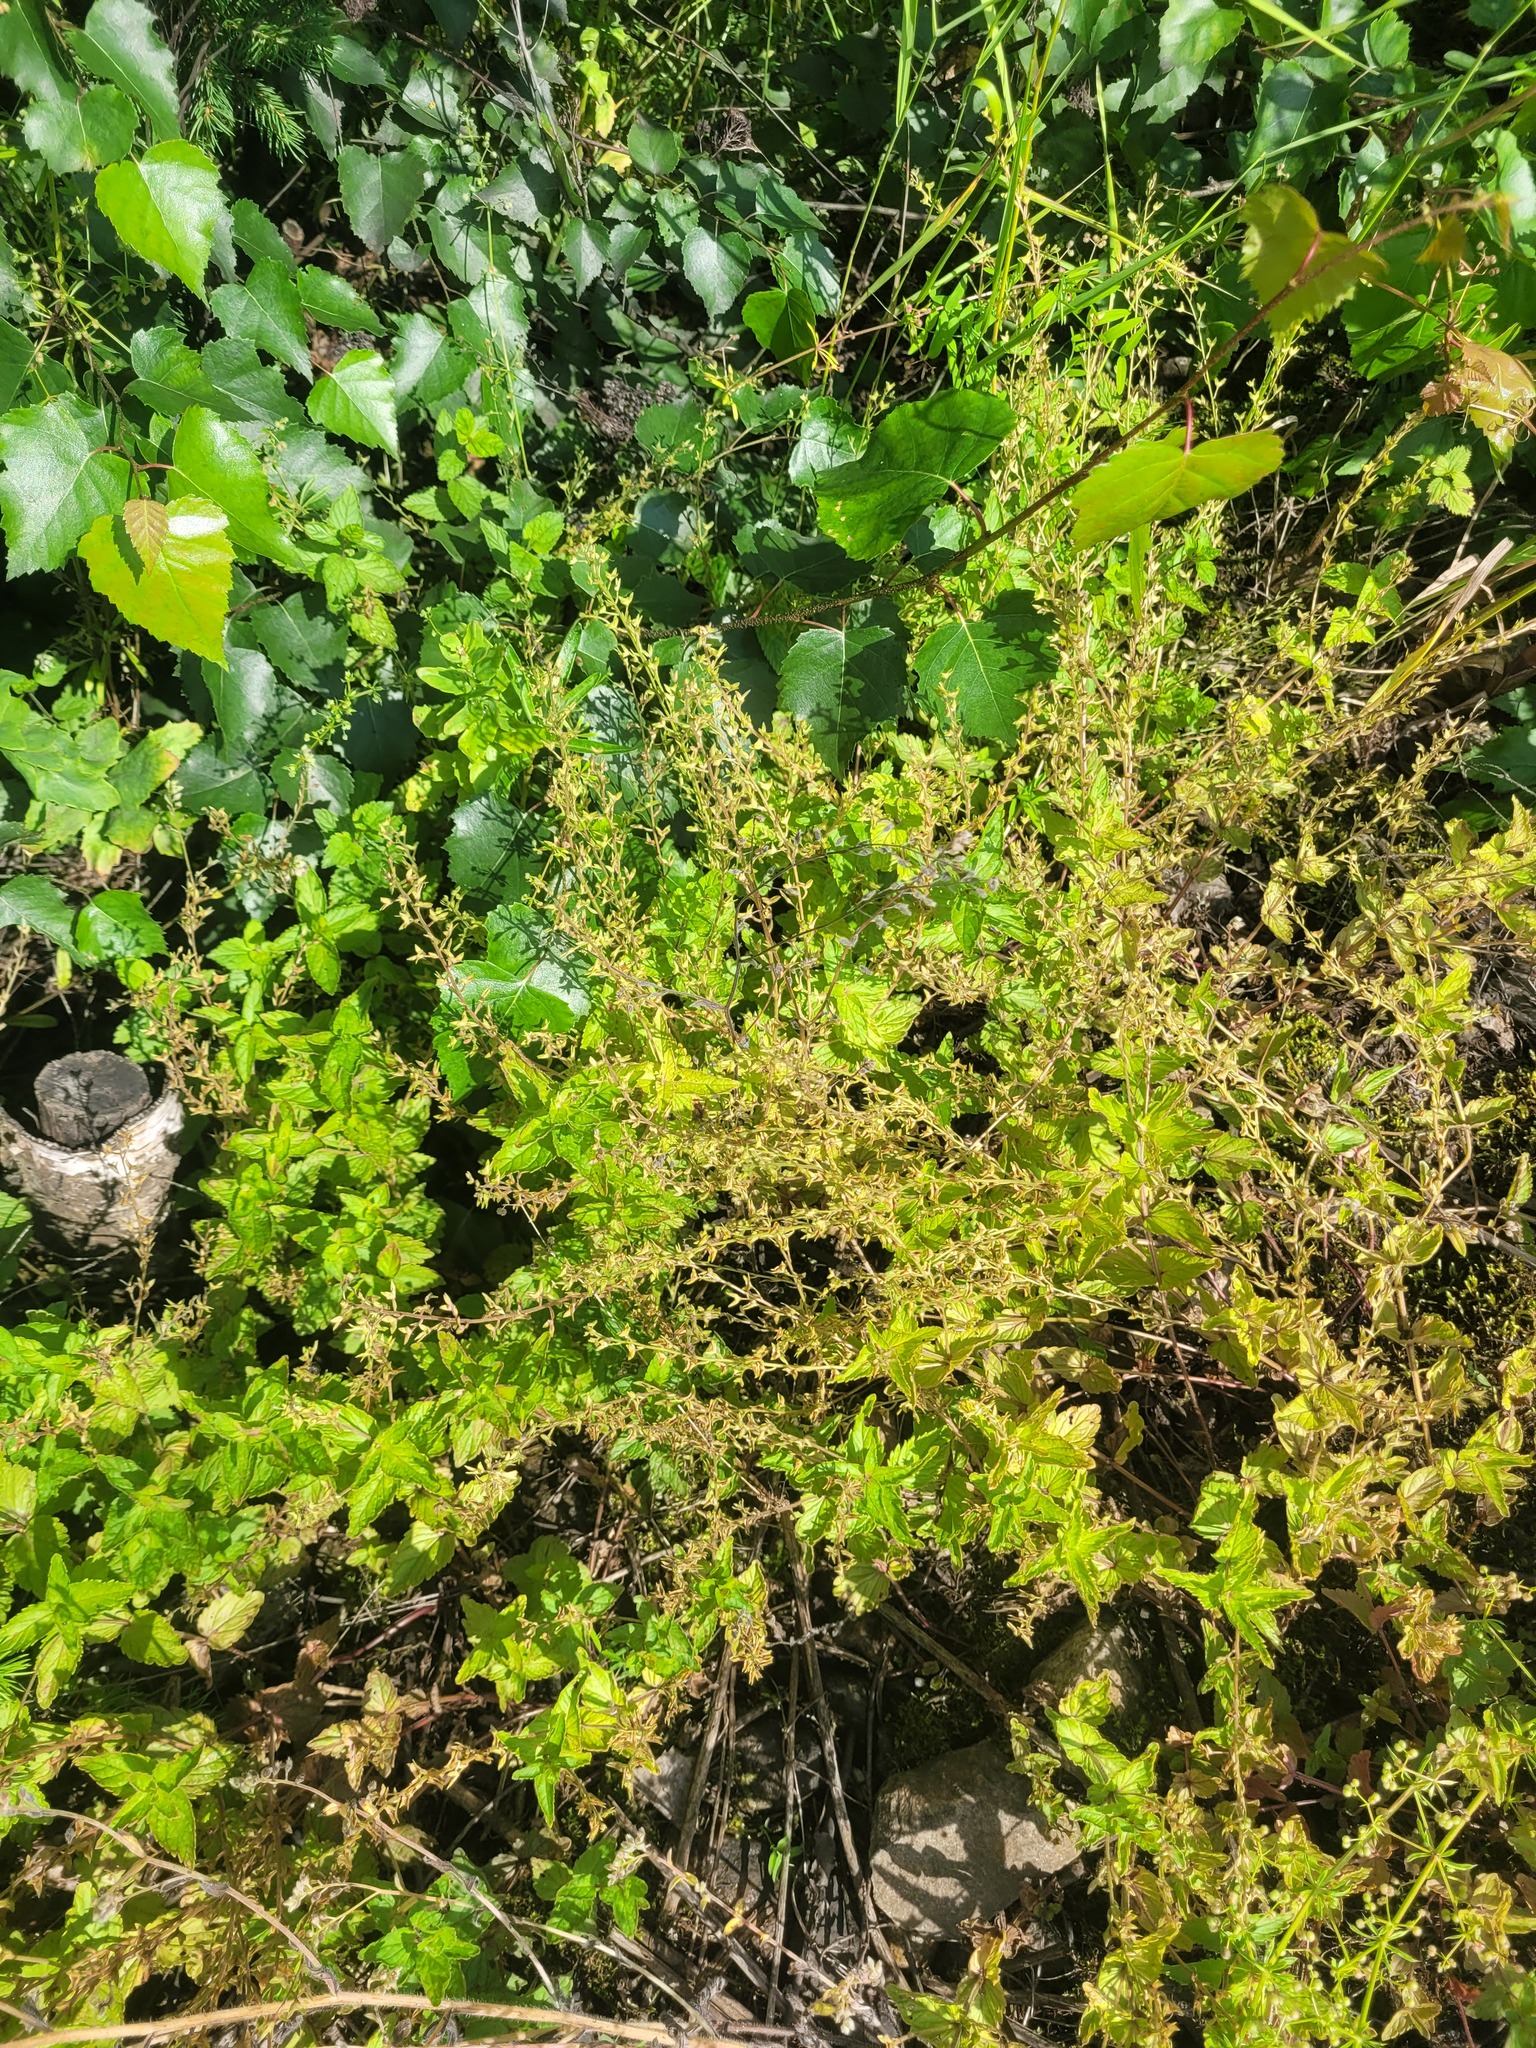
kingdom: Plantae
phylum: Tracheophyta
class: Magnoliopsida
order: Lamiales
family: Plantaginaceae
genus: Veronica
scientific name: Veronica chamaedrys
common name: Germander speedwell
